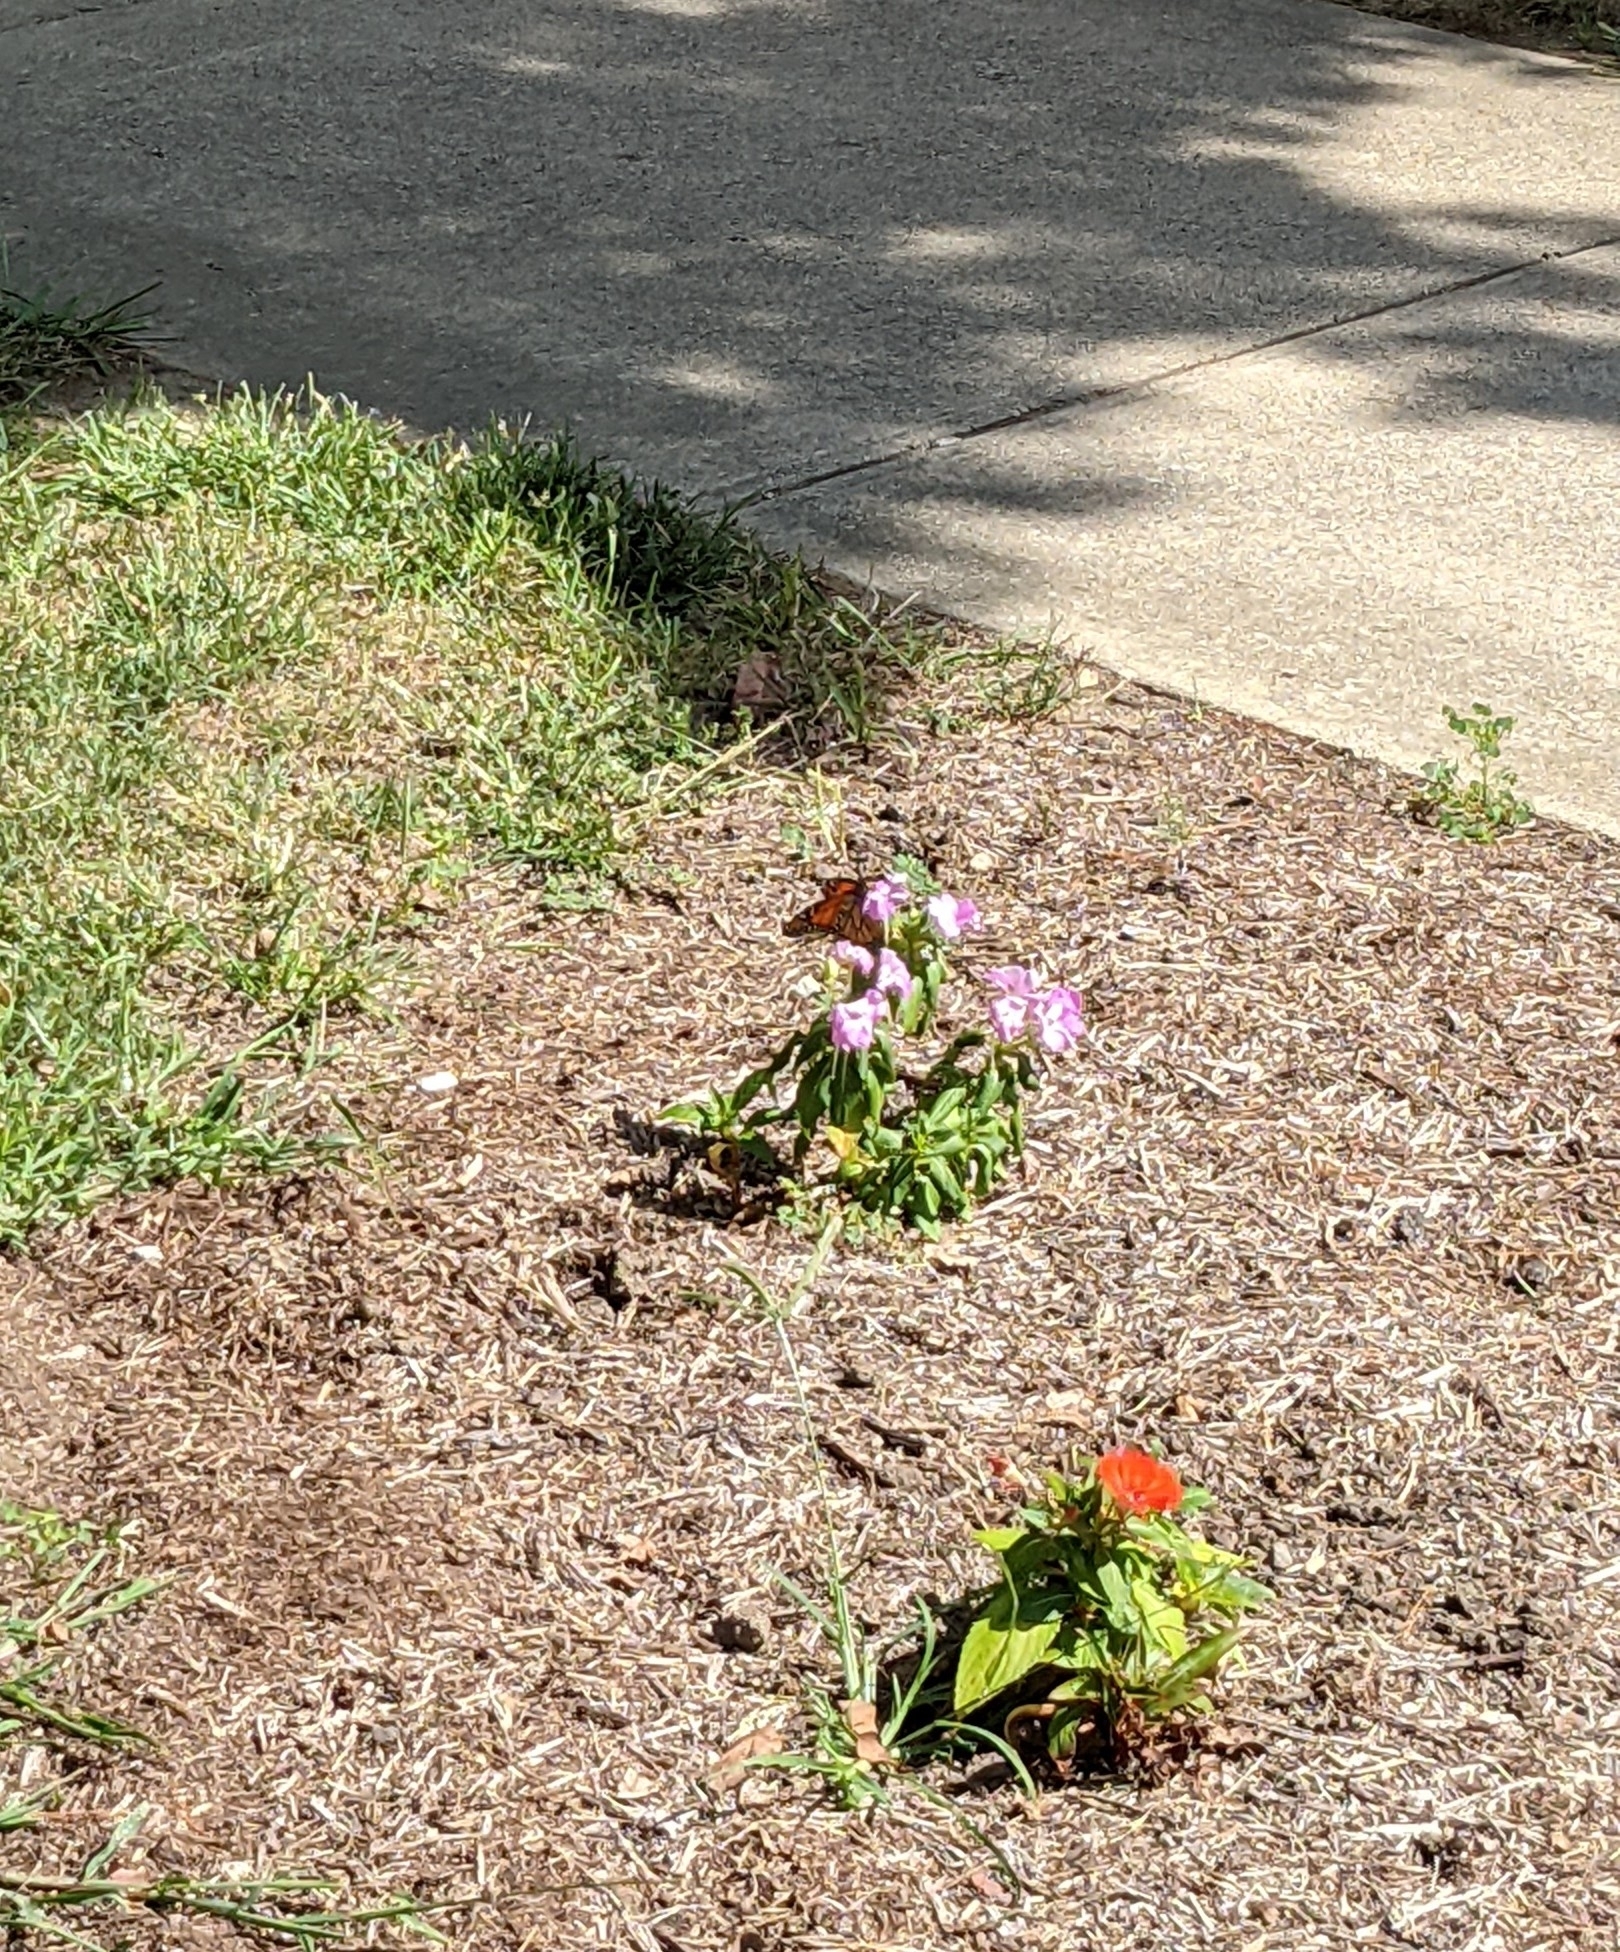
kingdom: Animalia
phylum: Arthropoda
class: Insecta
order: Lepidoptera
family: Nymphalidae
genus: Danaus
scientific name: Danaus plexippus
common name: Monarch
